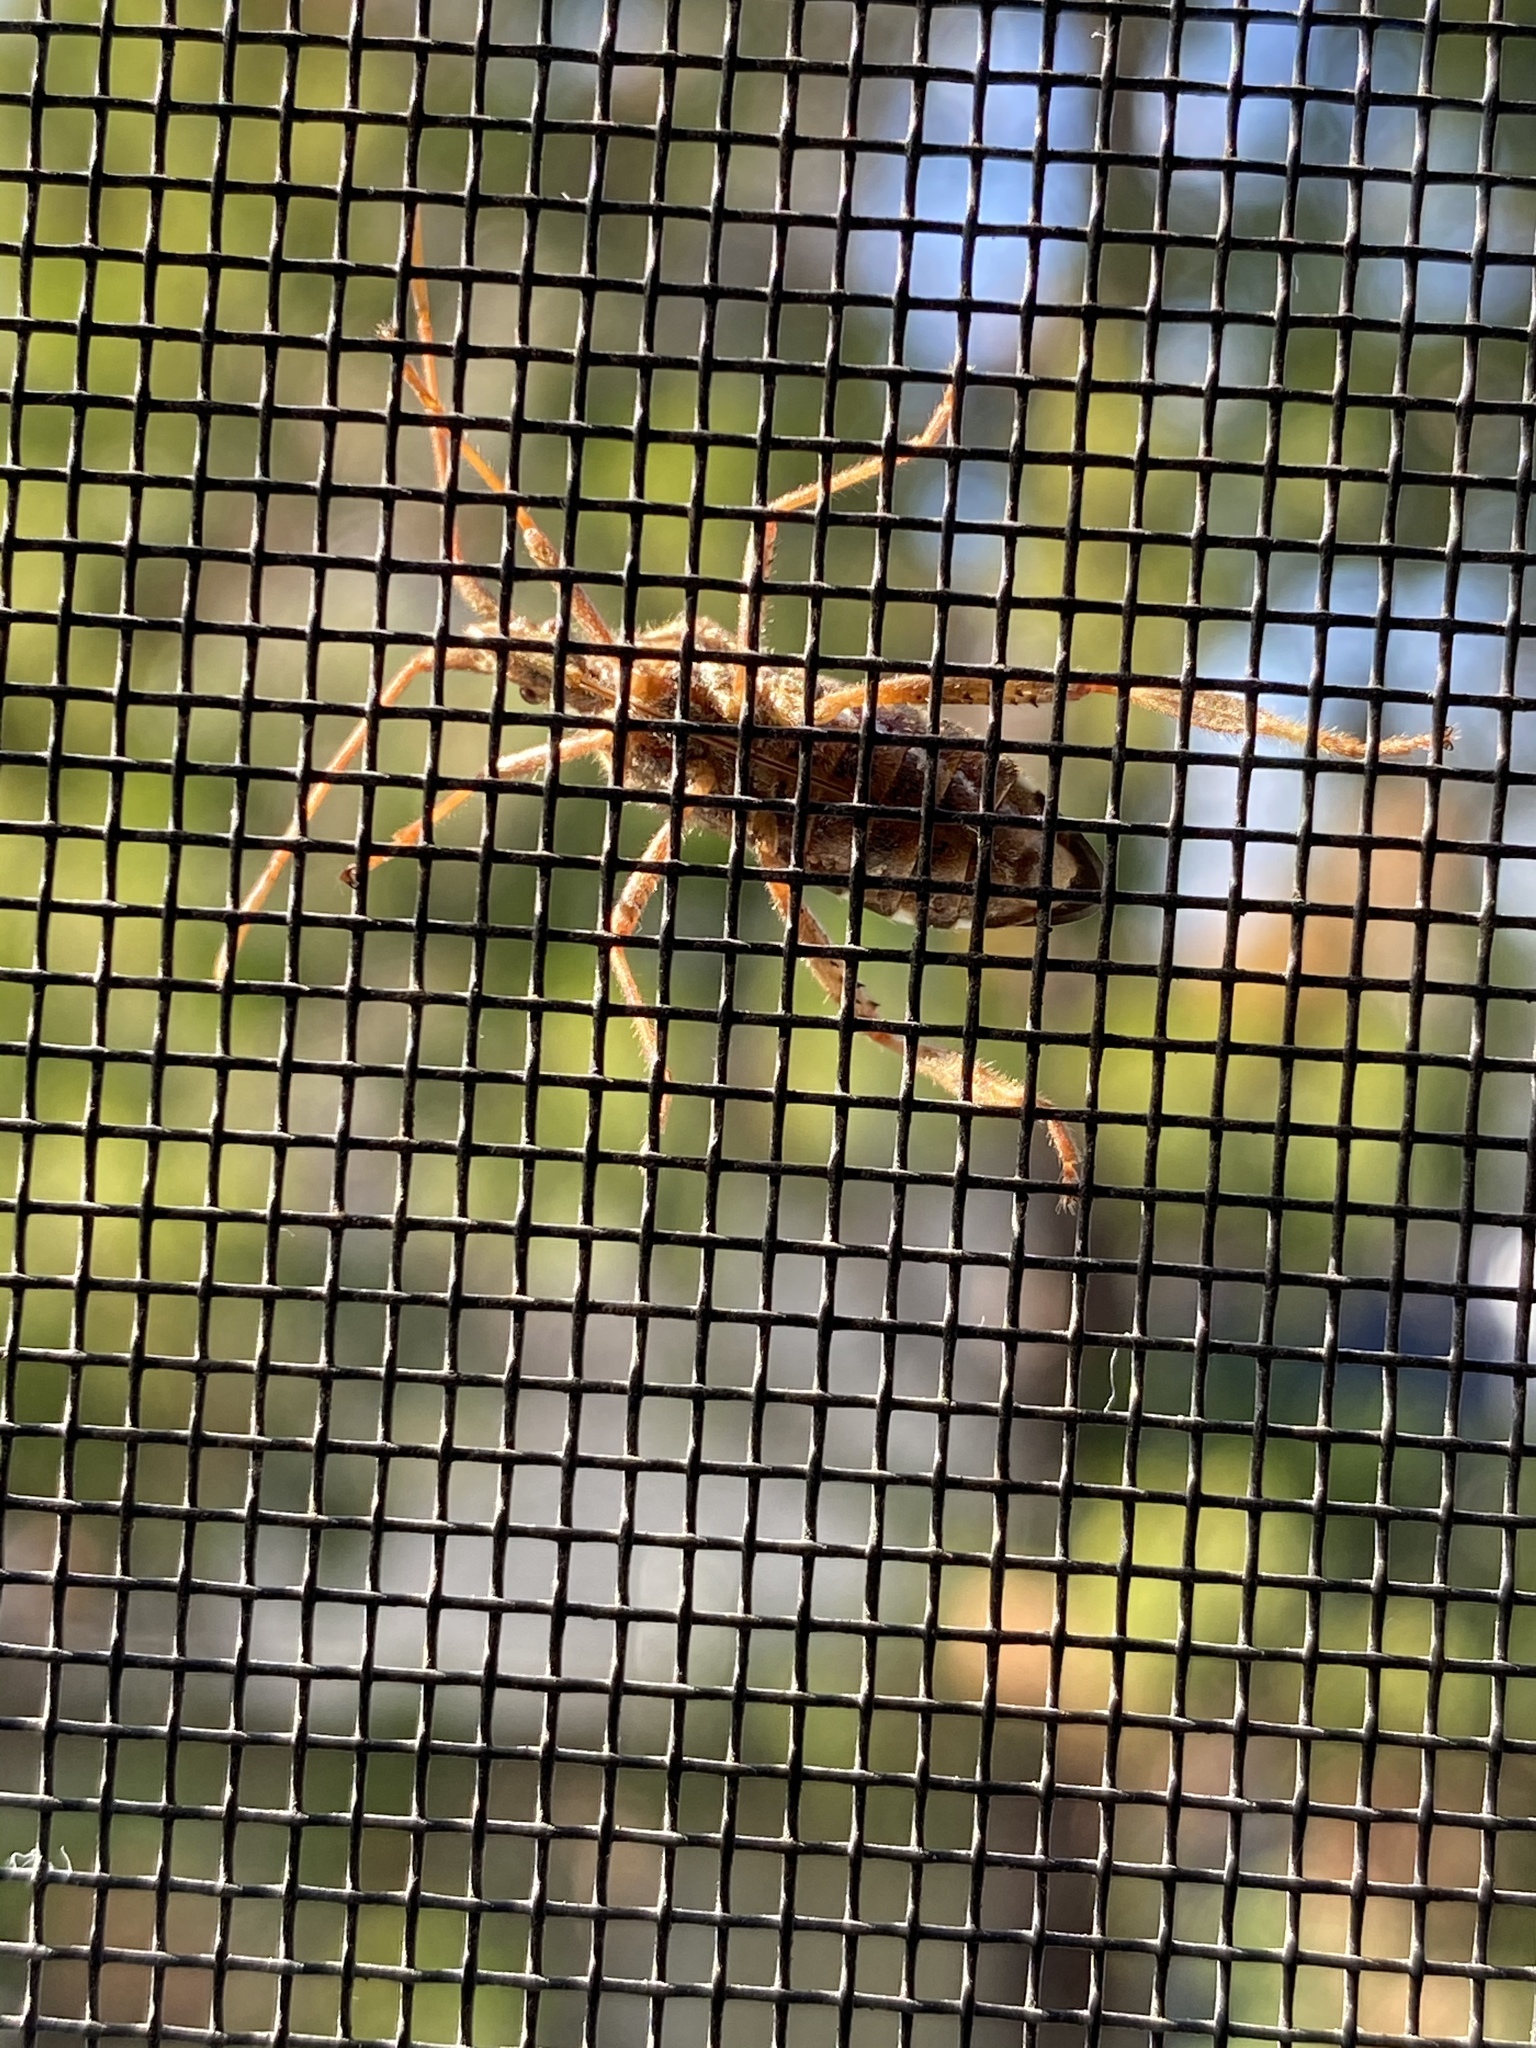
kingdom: Animalia
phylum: Arthropoda
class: Insecta
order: Hemiptera
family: Coreidae
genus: Leptoglossus
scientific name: Leptoglossus occidentalis
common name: Western conifer-seed bug
